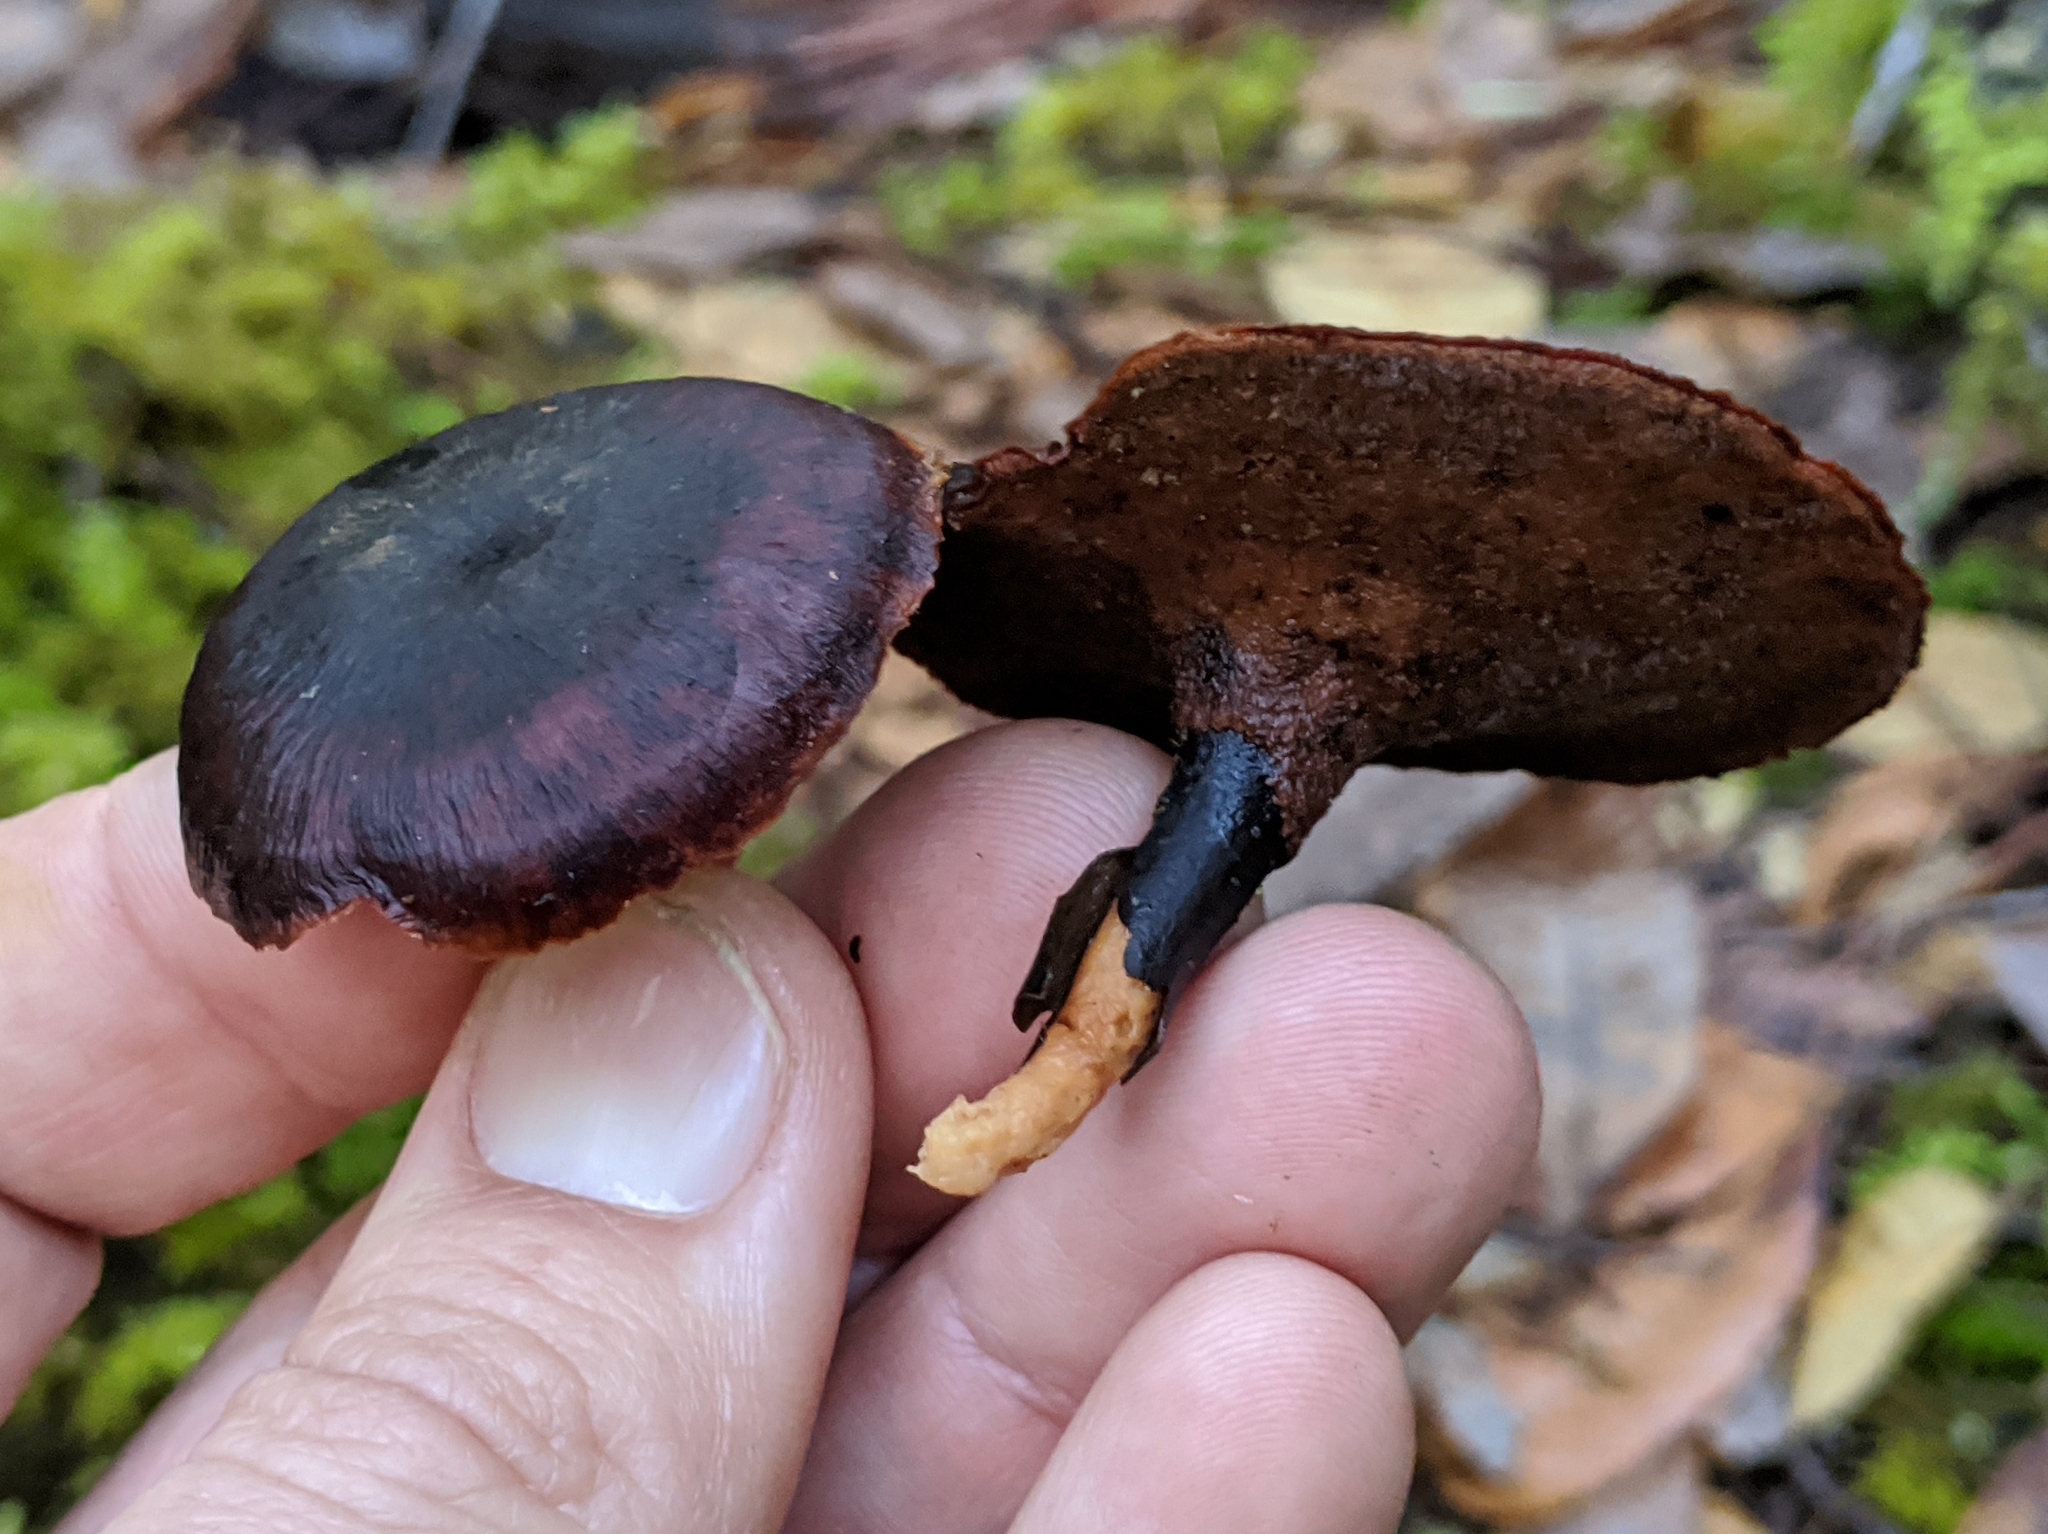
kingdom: Fungi
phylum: Basidiomycota
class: Agaricomycetes
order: Polyporales
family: Polyporaceae
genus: Picipes
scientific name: Picipes badius
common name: Bay polypore
